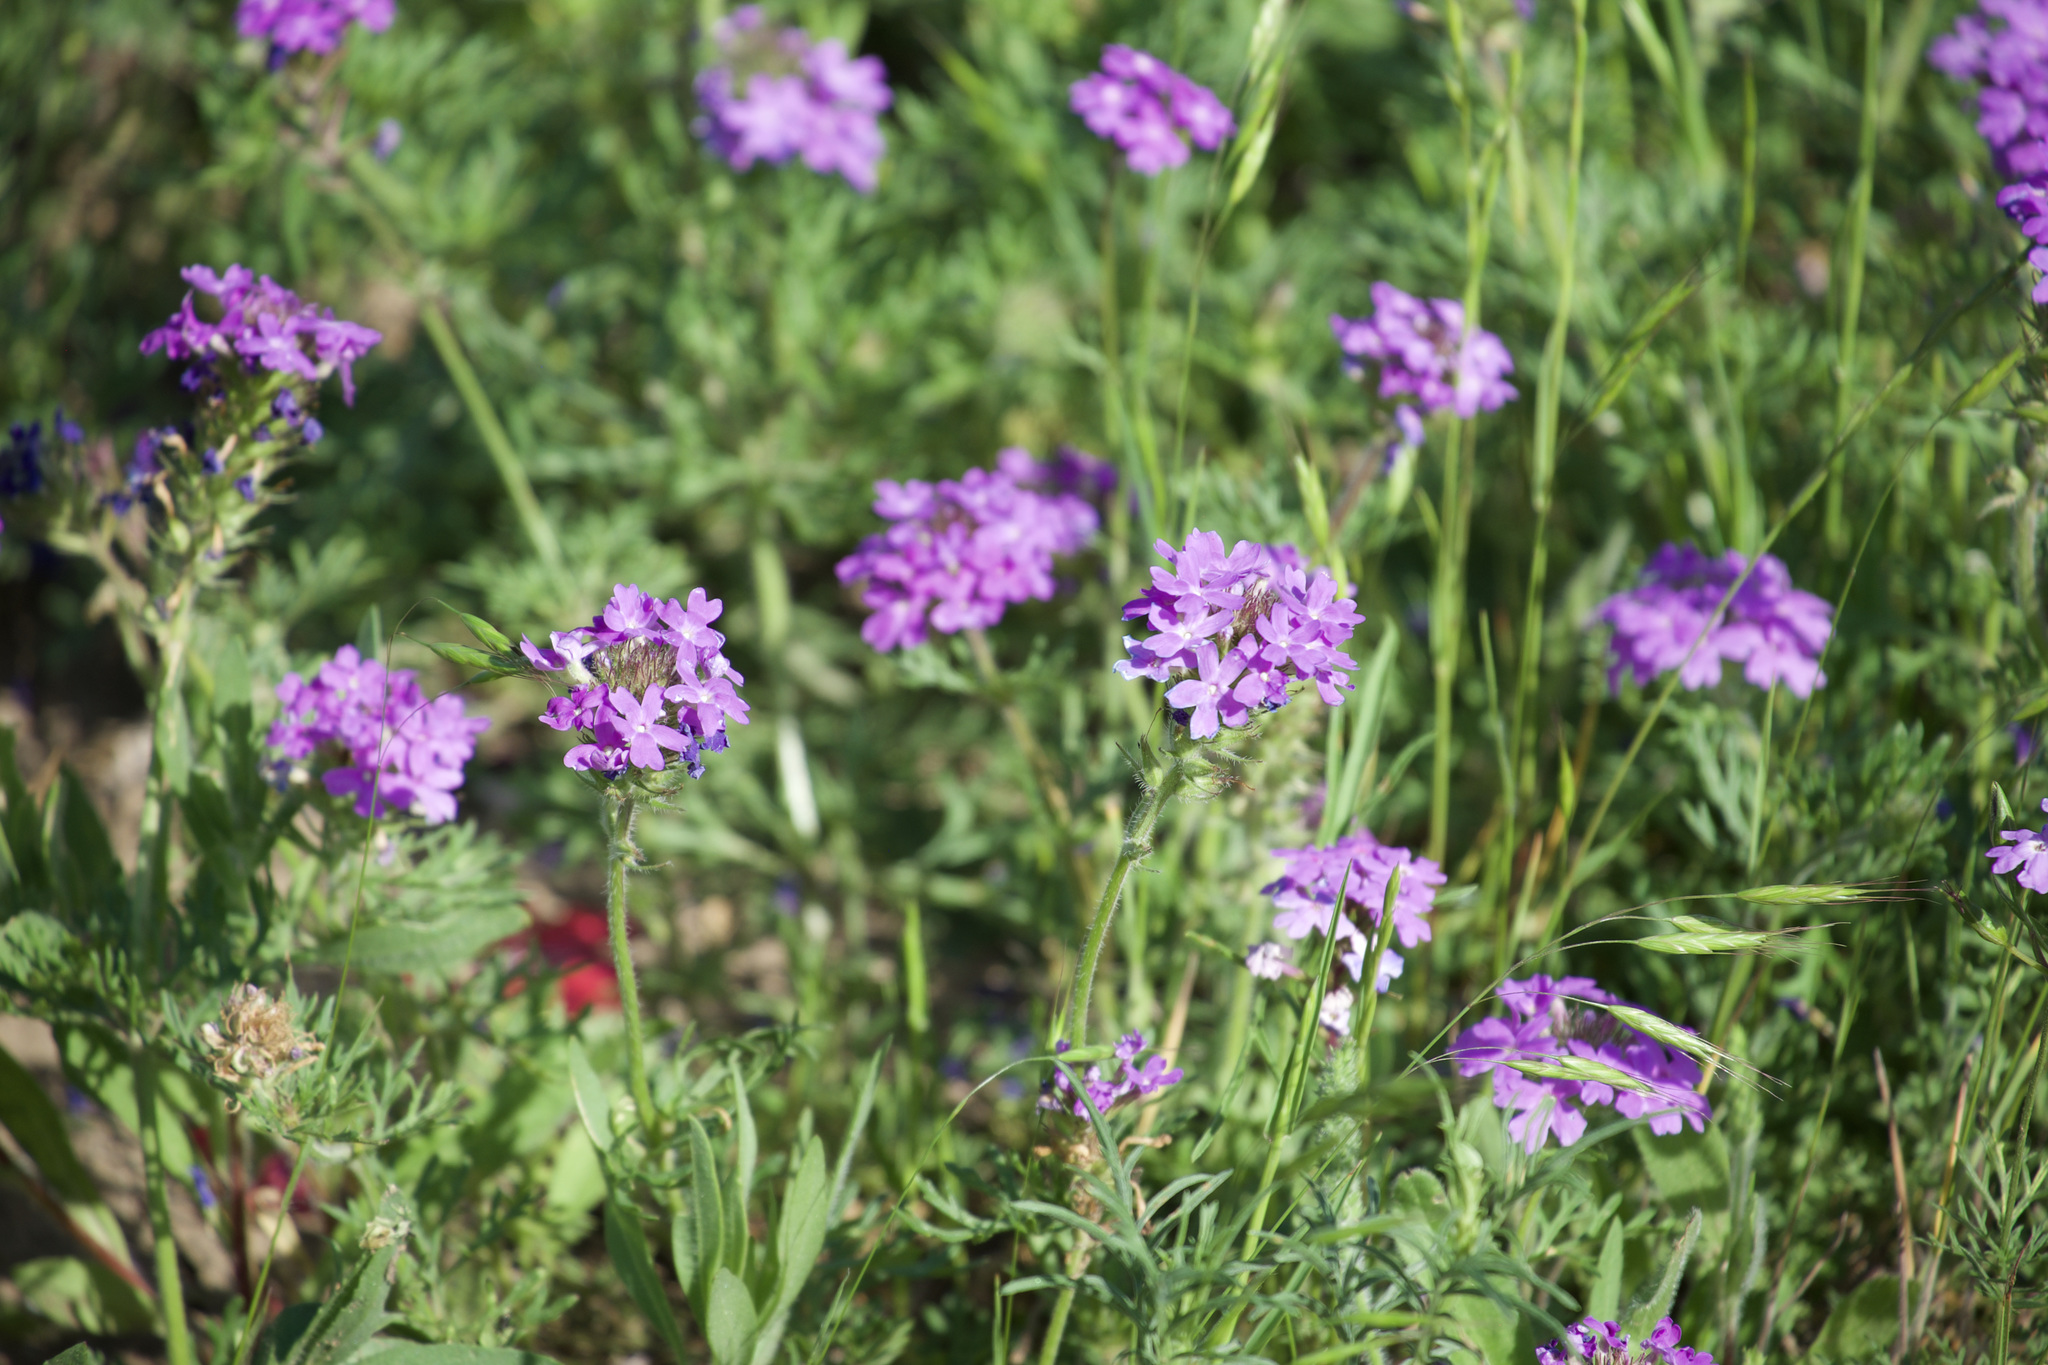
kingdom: Plantae
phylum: Tracheophyta
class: Magnoliopsida
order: Lamiales
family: Verbenaceae
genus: Verbena
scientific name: Verbena bipinnatifida
